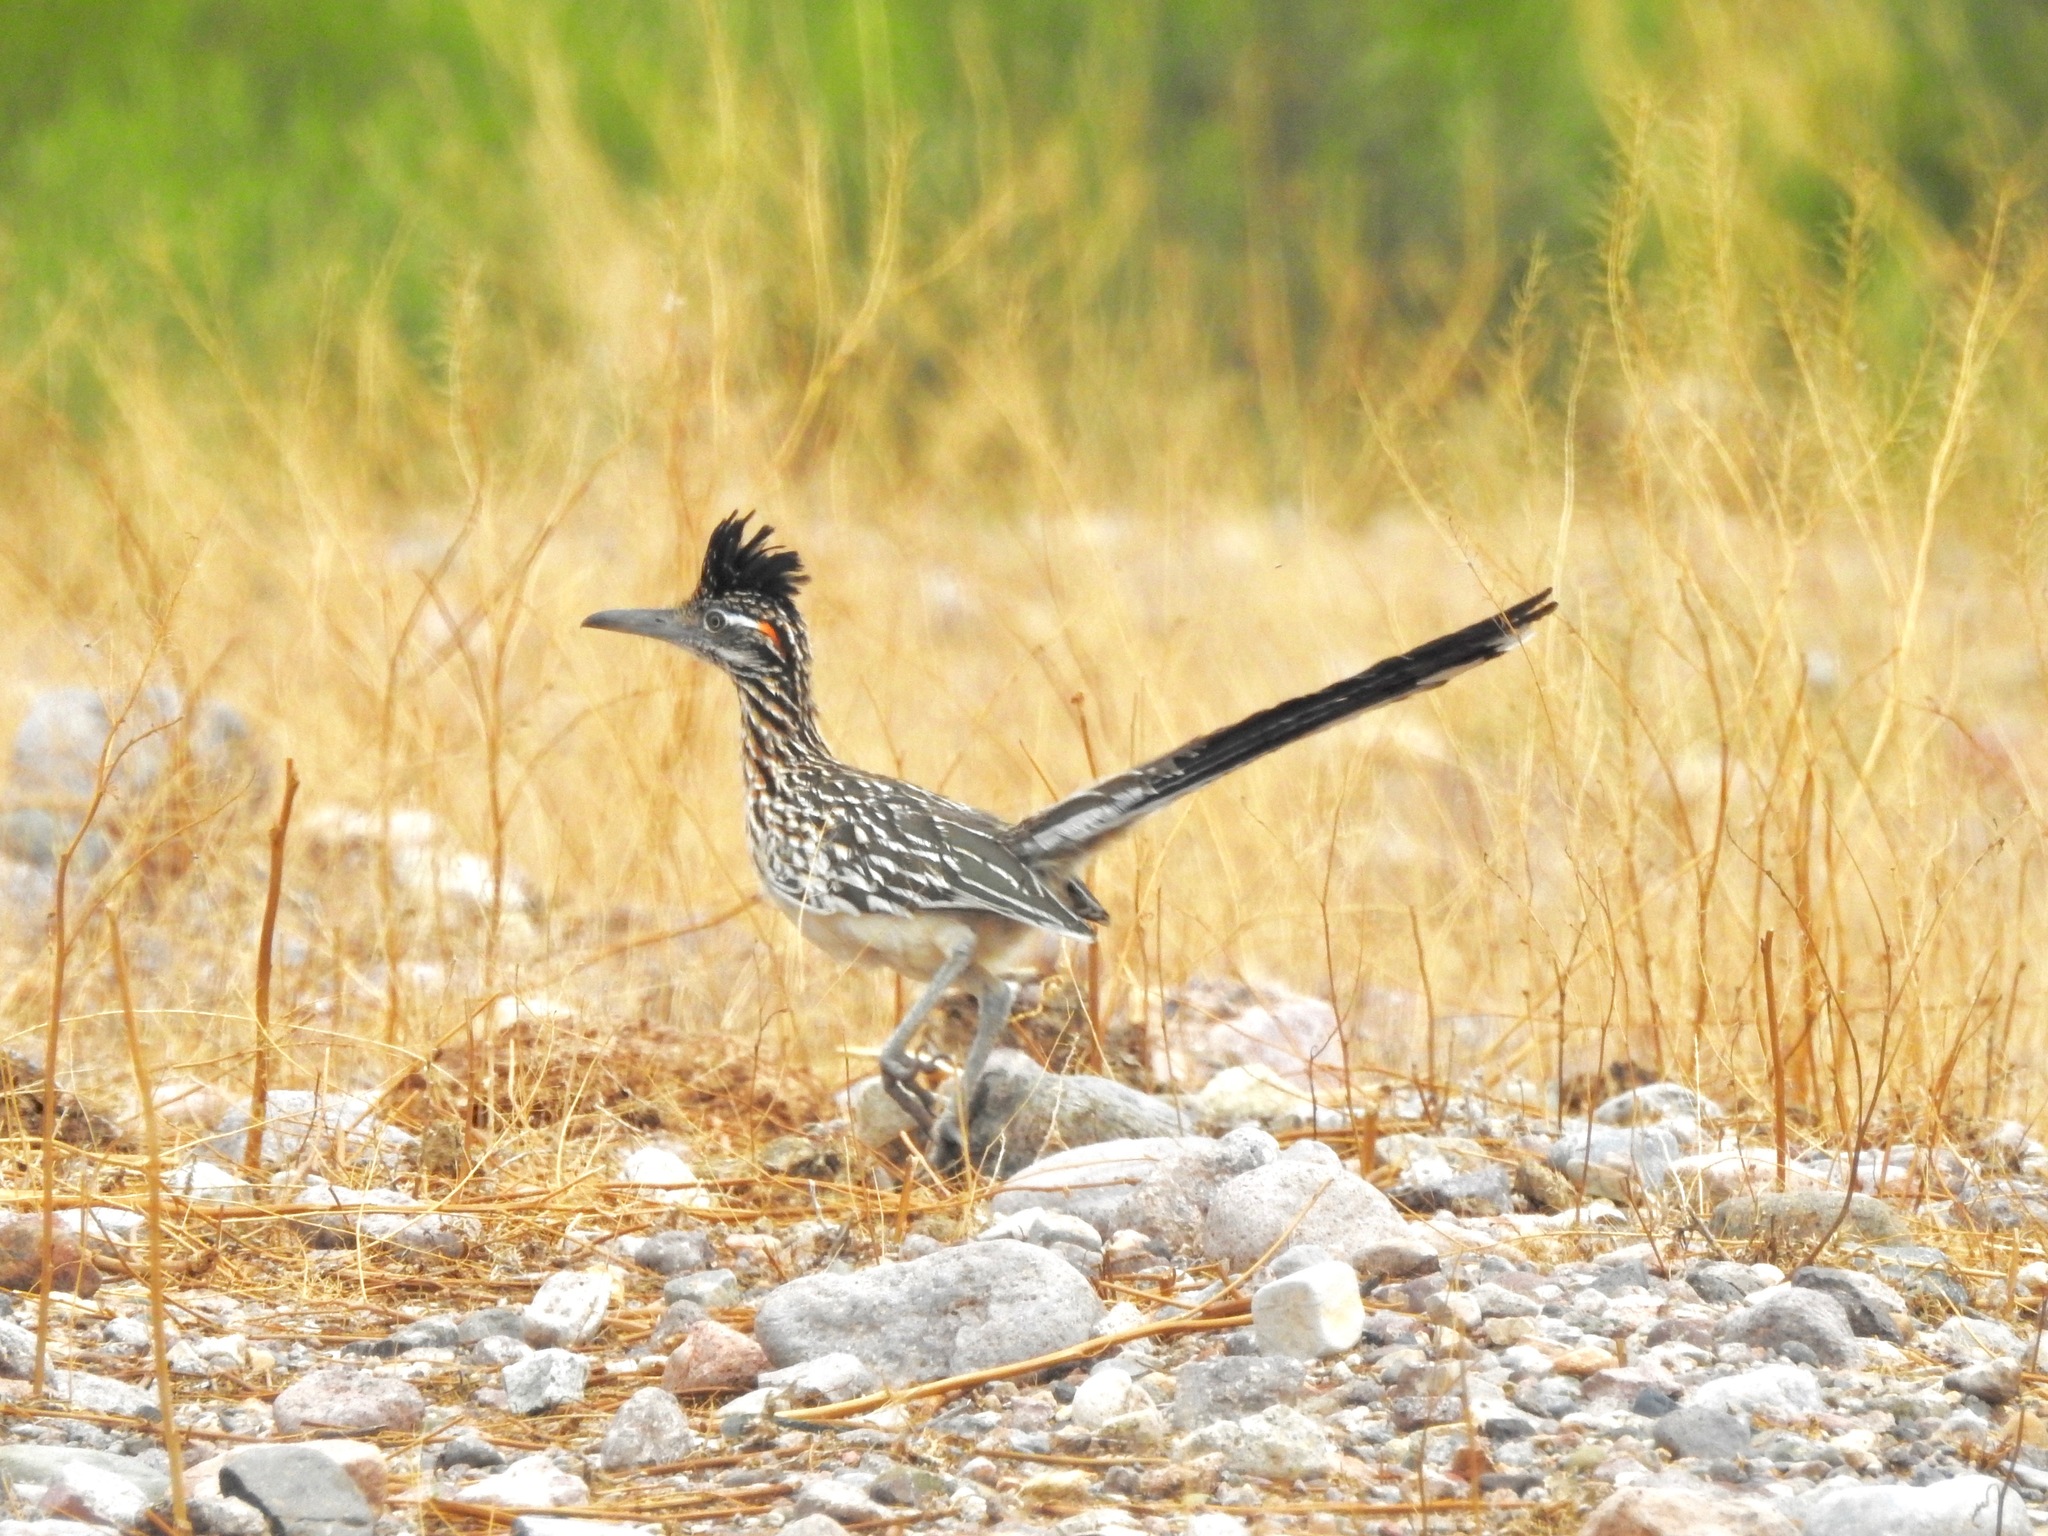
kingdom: Animalia
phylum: Chordata
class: Aves
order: Cuculiformes
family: Cuculidae
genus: Geococcyx
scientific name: Geococcyx californianus
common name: Greater roadrunner
